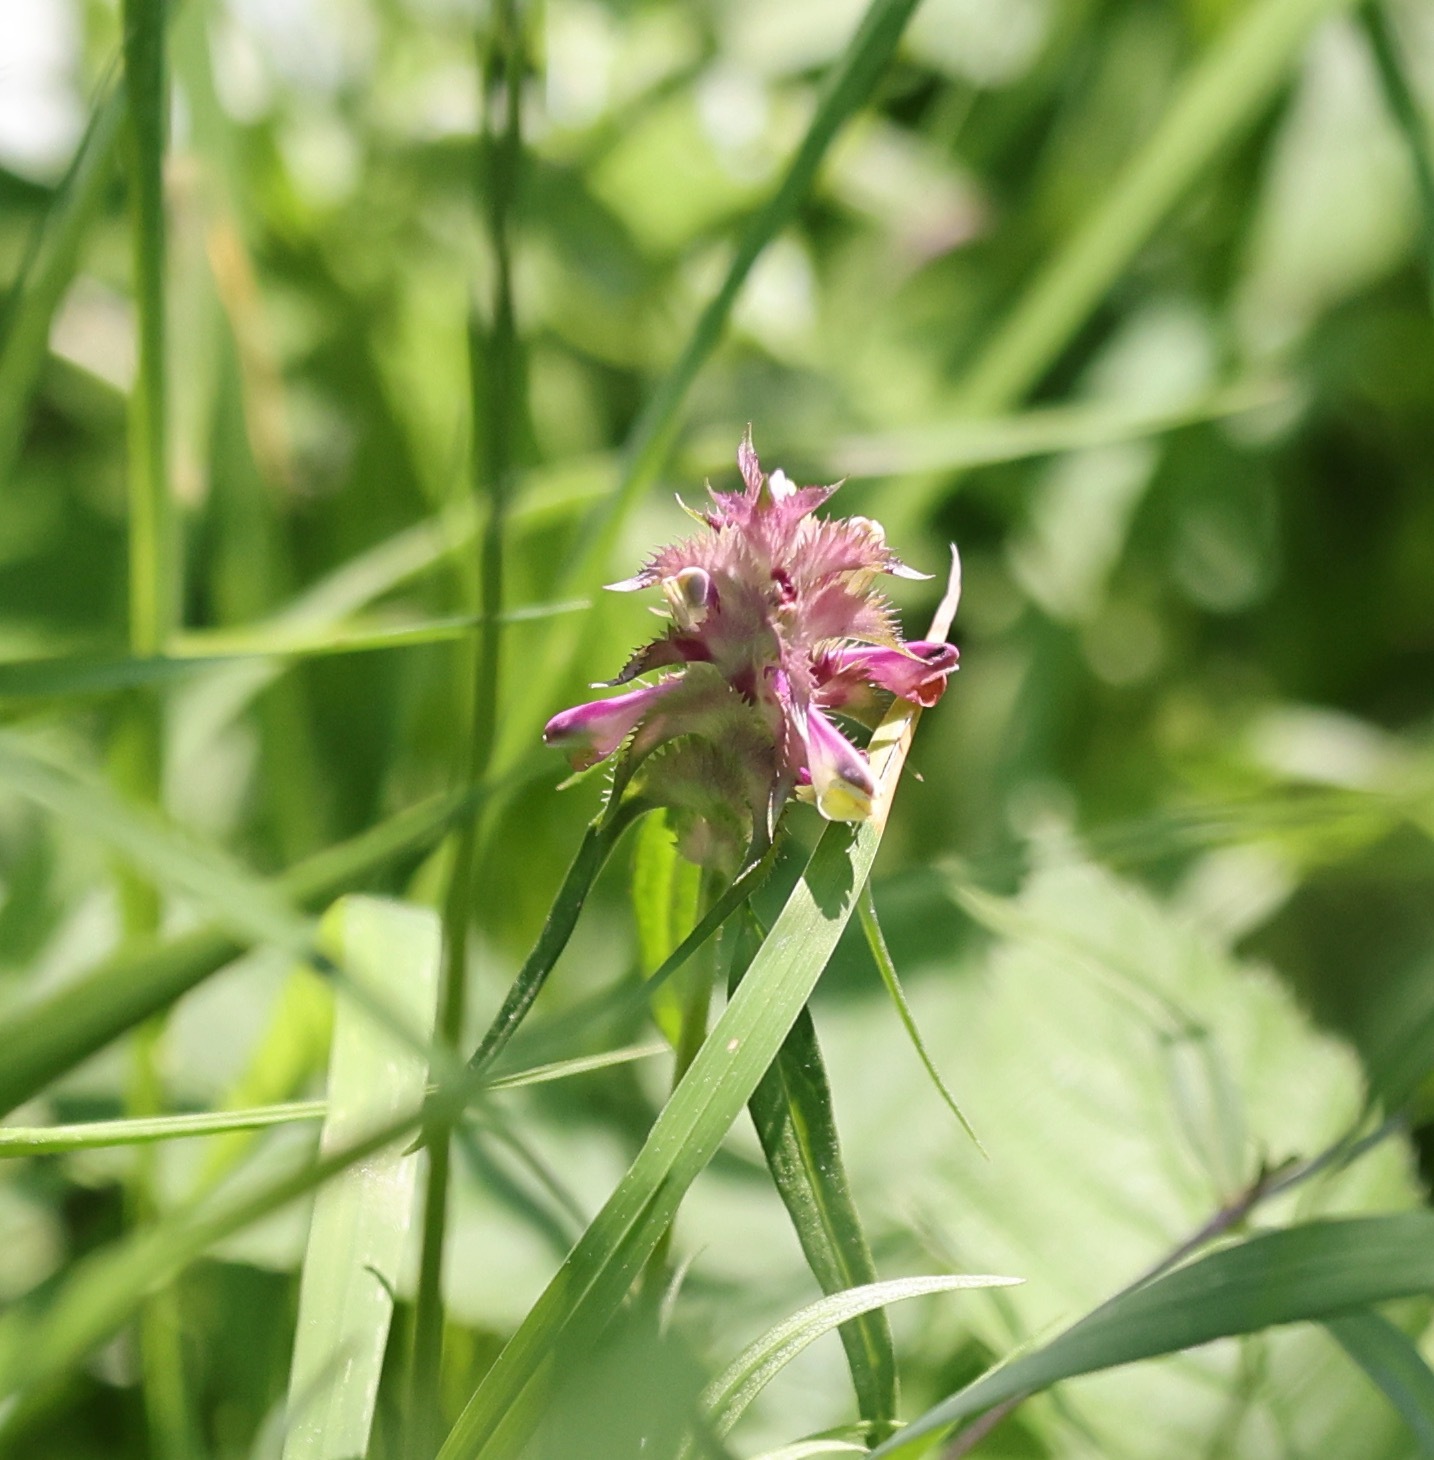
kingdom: Plantae
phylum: Tracheophyta
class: Magnoliopsida
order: Lamiales
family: Orobanchaceae
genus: Melampyrum
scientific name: Melampyrum cristatum
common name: Crested cow-wheat
